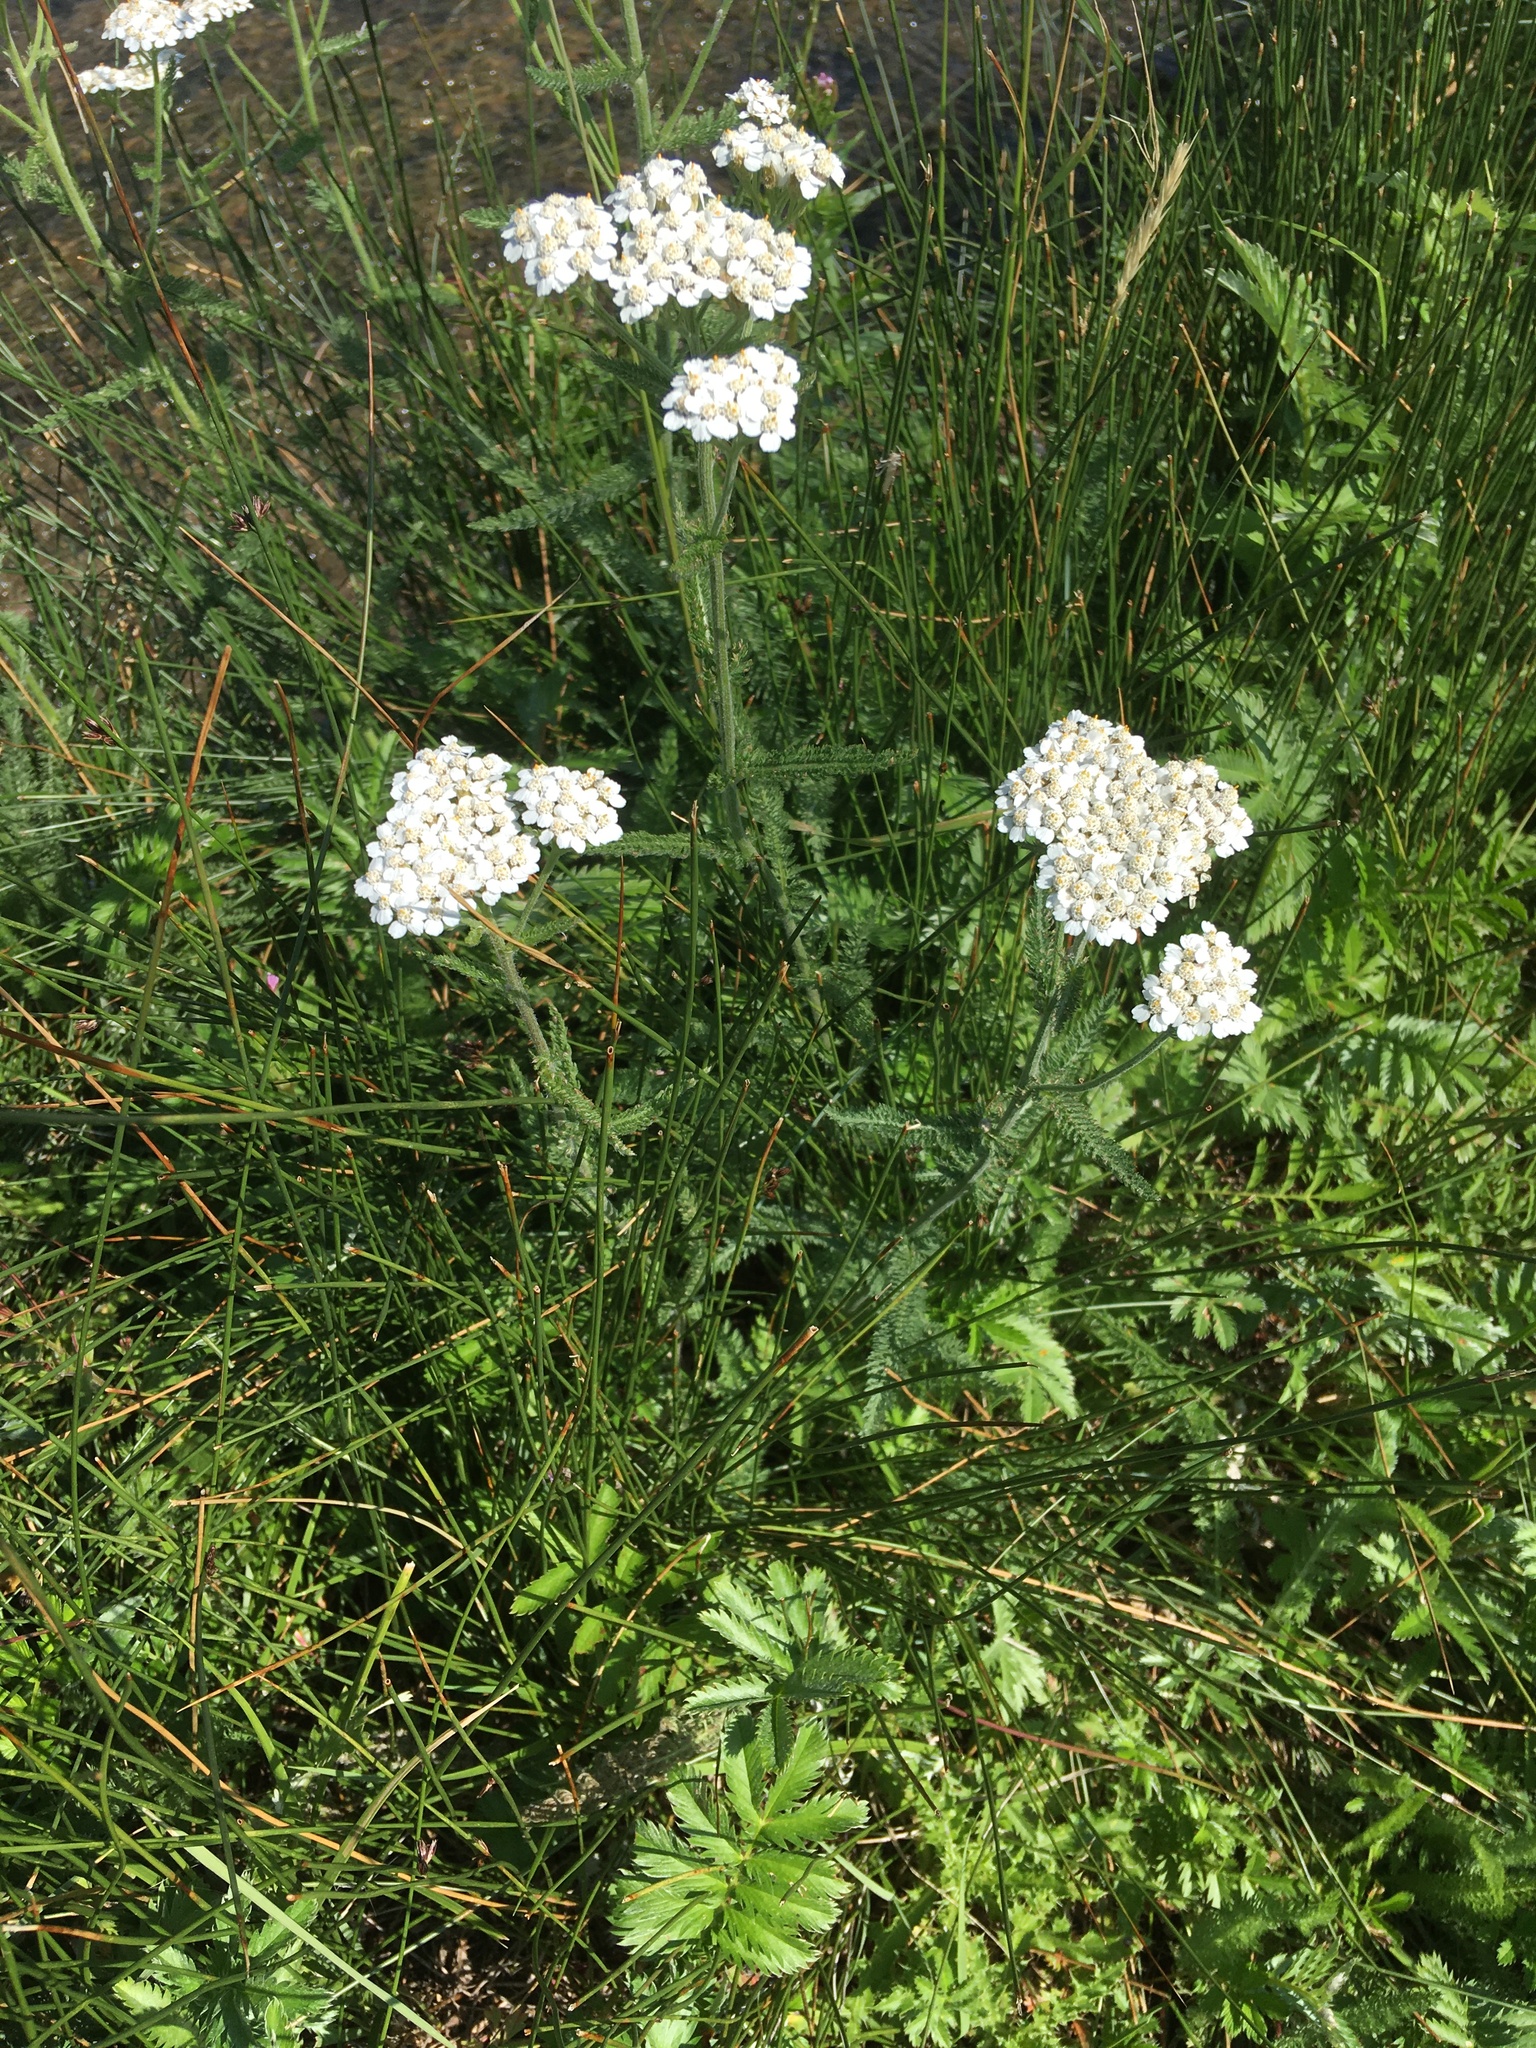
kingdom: Plantae
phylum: Tracheophyta
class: Magnoliopsida
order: Asterales
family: Asteraceae
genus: Achillea
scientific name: Achillea millefolium
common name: Yarrow
